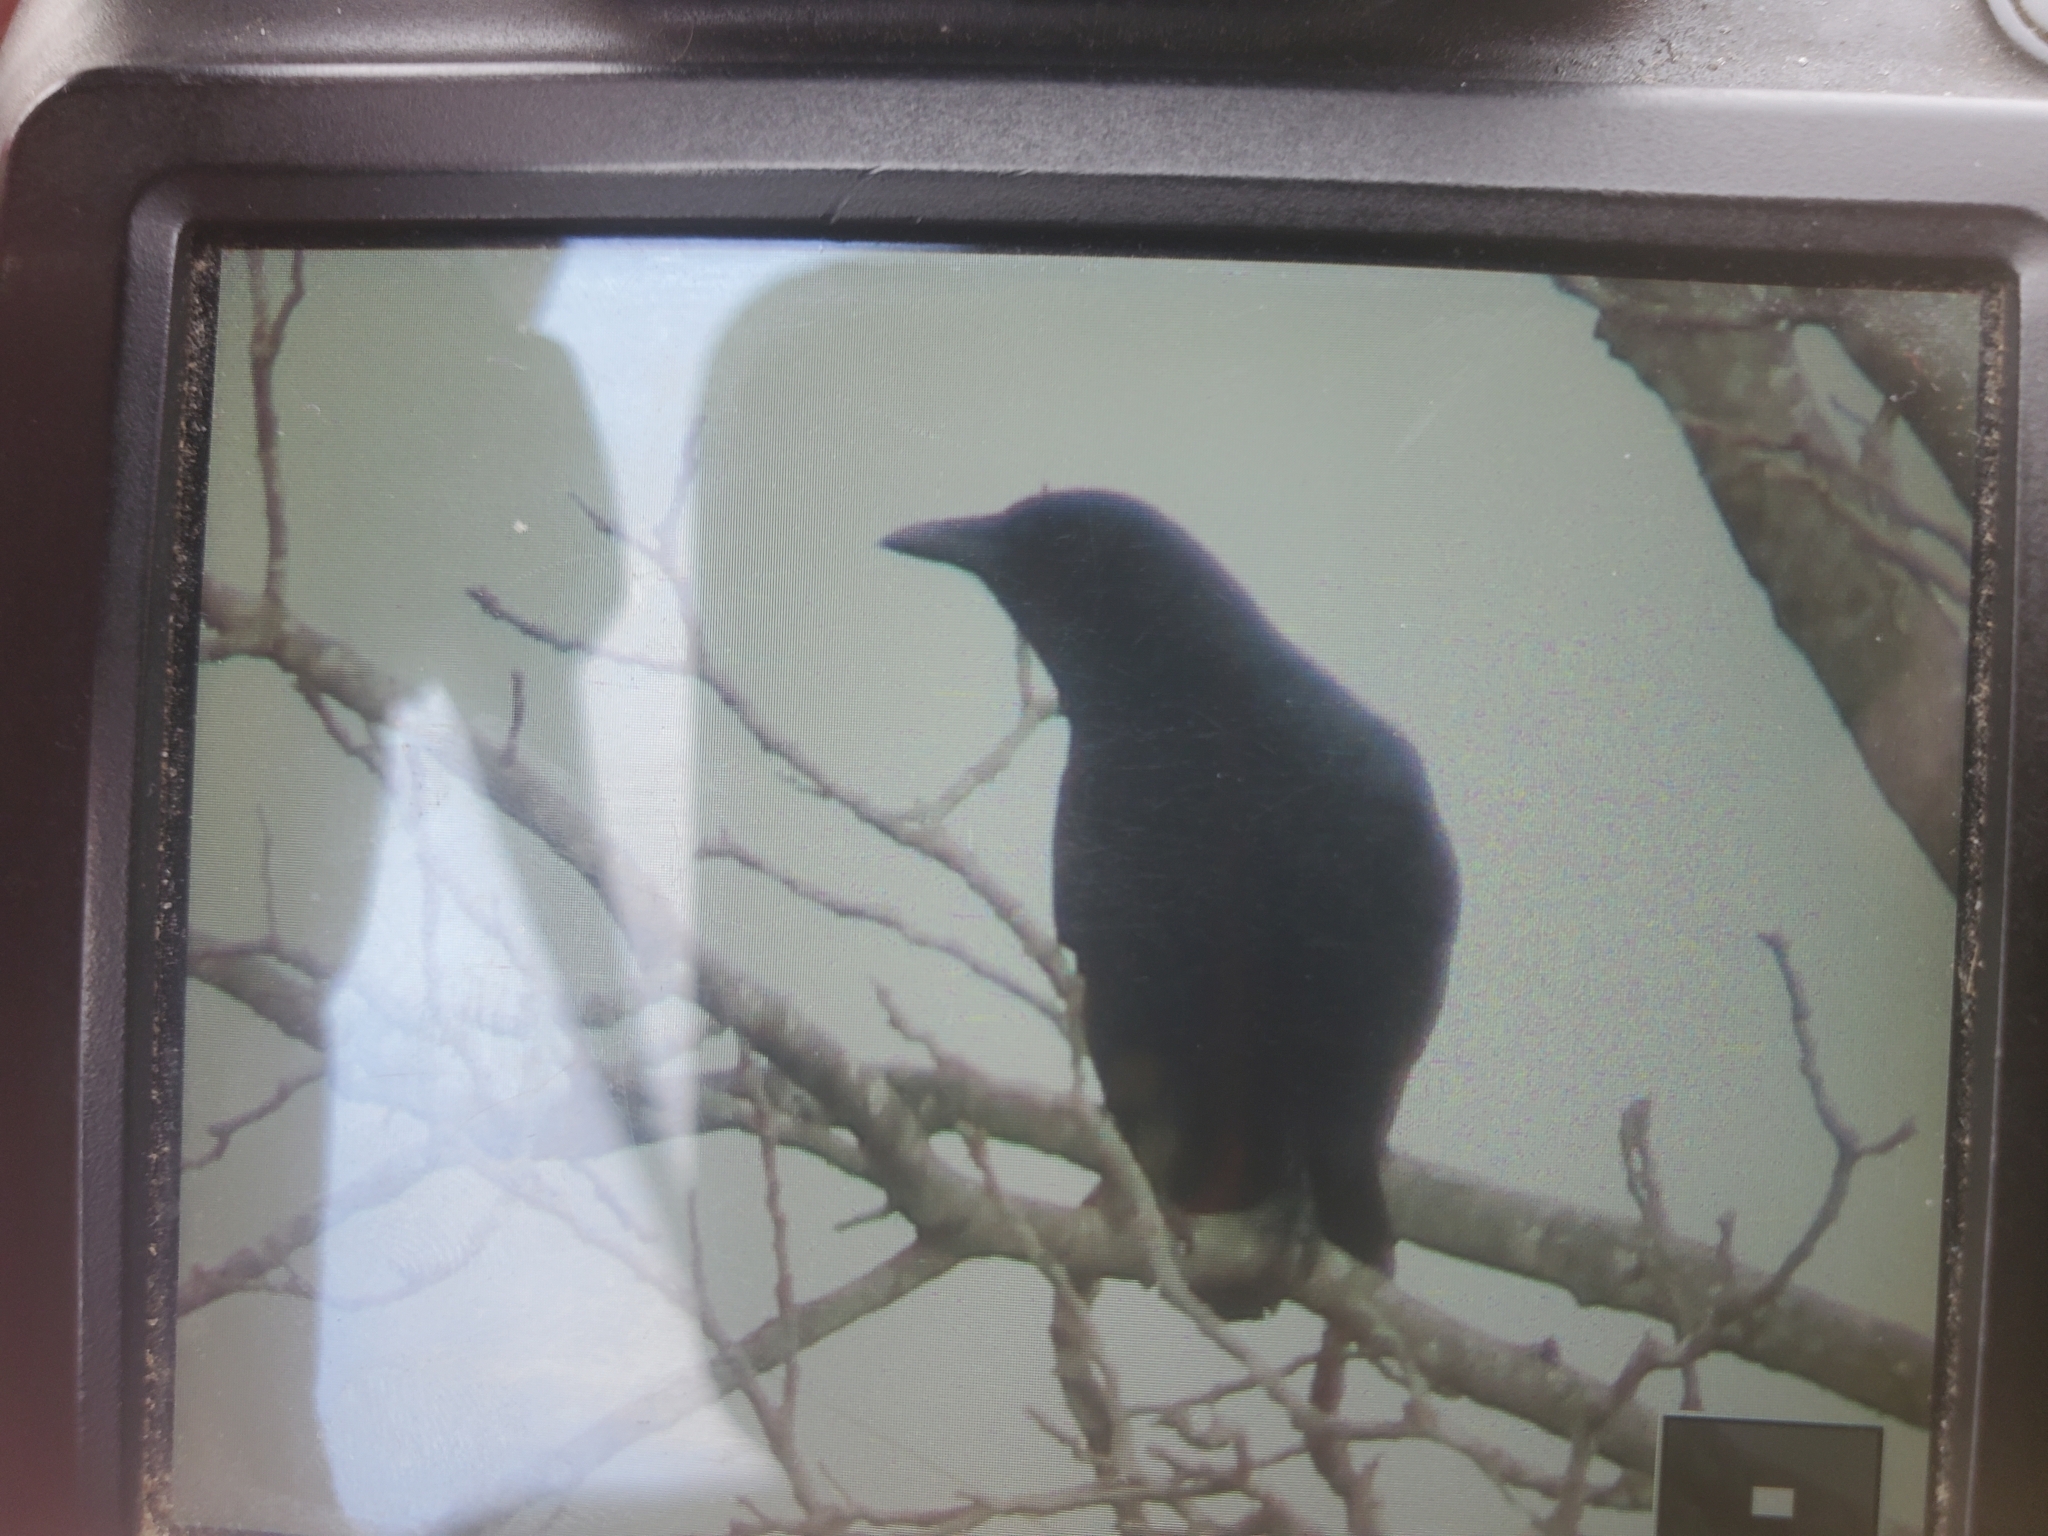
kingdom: Animalia
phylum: Chordata
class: Aves
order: Passeriformes
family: Corvidae
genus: Corvus
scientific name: Corvus brachyrhynchos
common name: American crow
